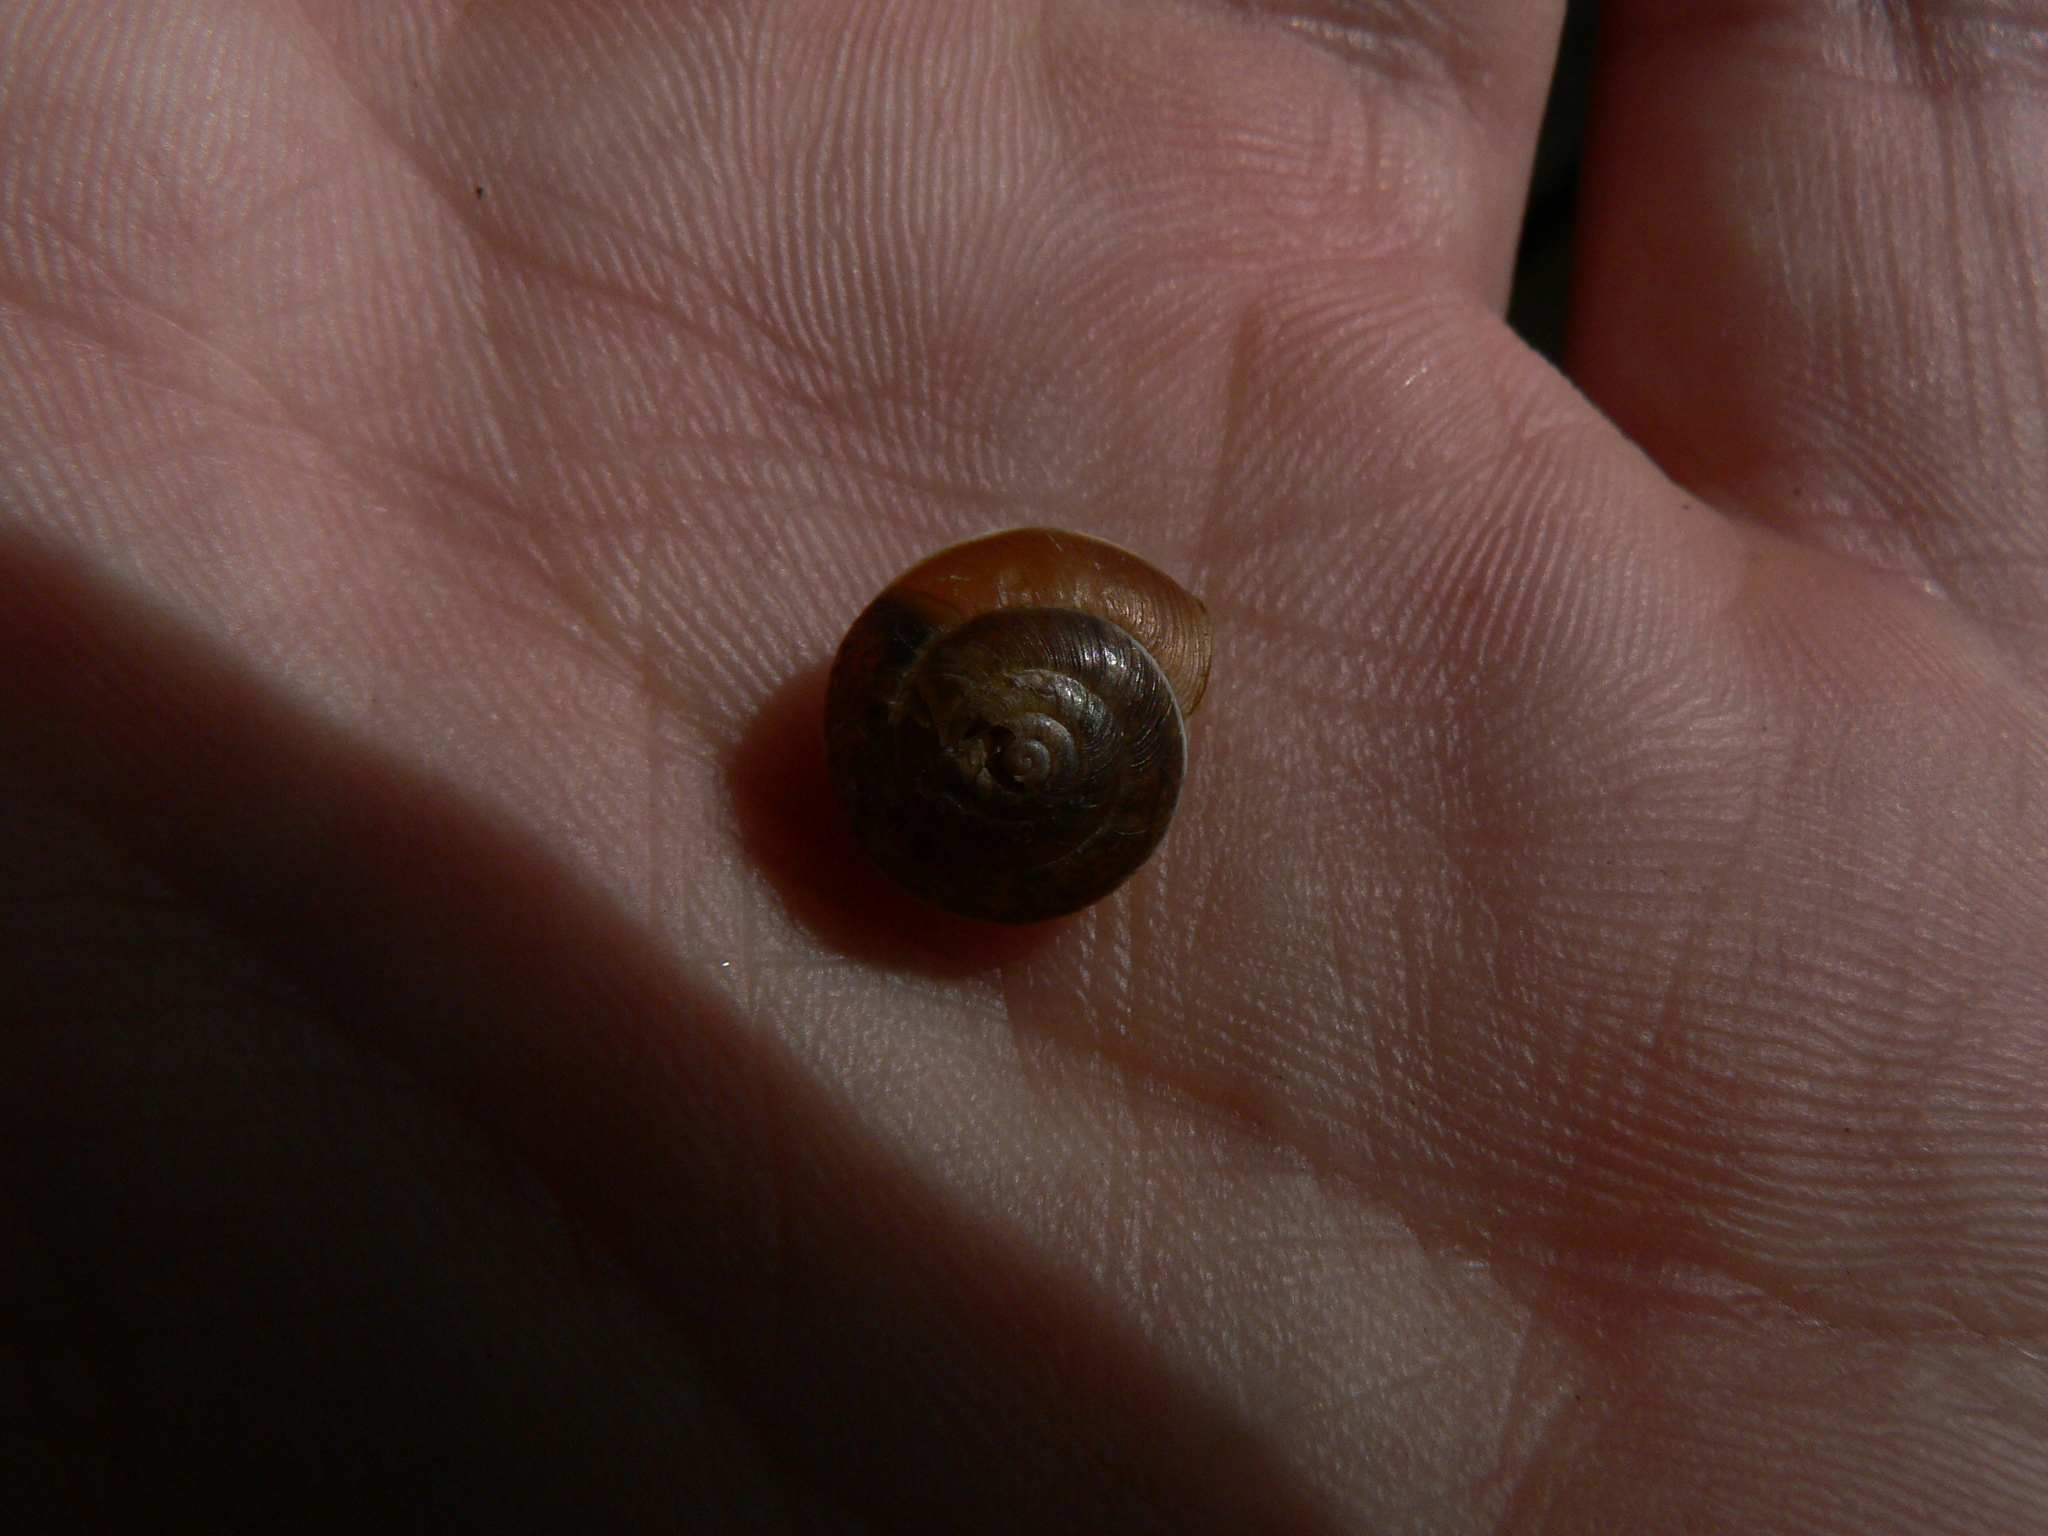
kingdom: Animalia
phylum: Mollusca
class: Gastropoda
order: Stylommatophora
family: Hygromiidae
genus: Hygromia
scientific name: Hygromia cinctella
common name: Girdled snail
